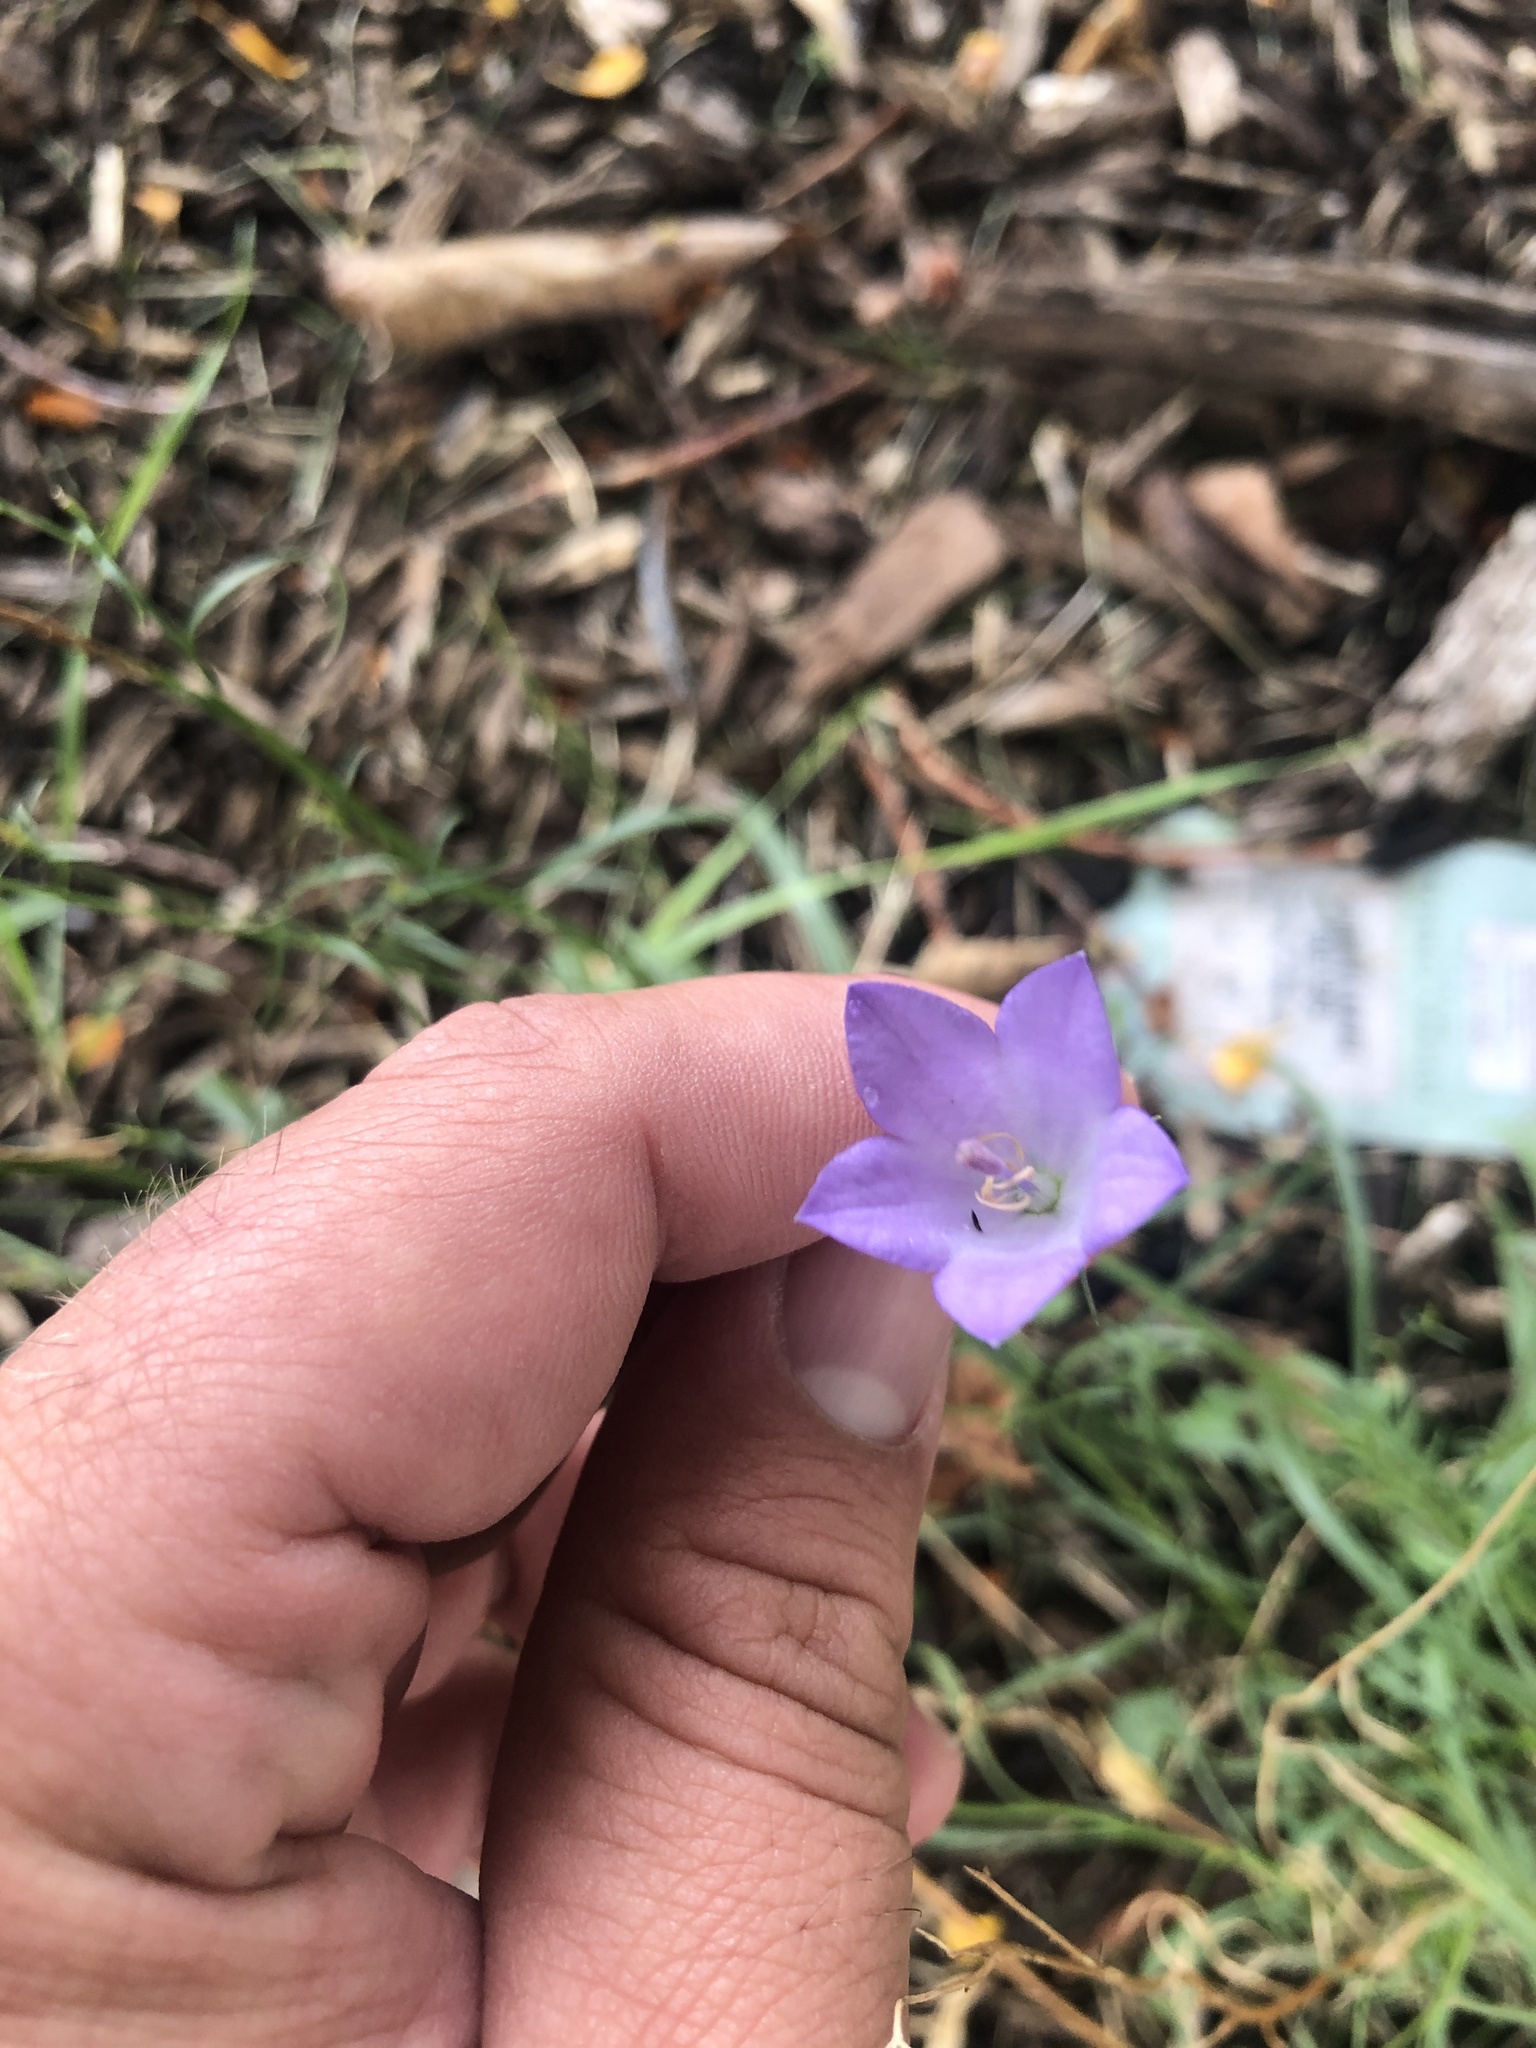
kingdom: Plantae
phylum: Tracheophyta
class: Magnoliopsida
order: Asterales
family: Campanulaceae
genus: Campanula
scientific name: Campanula intercedens
